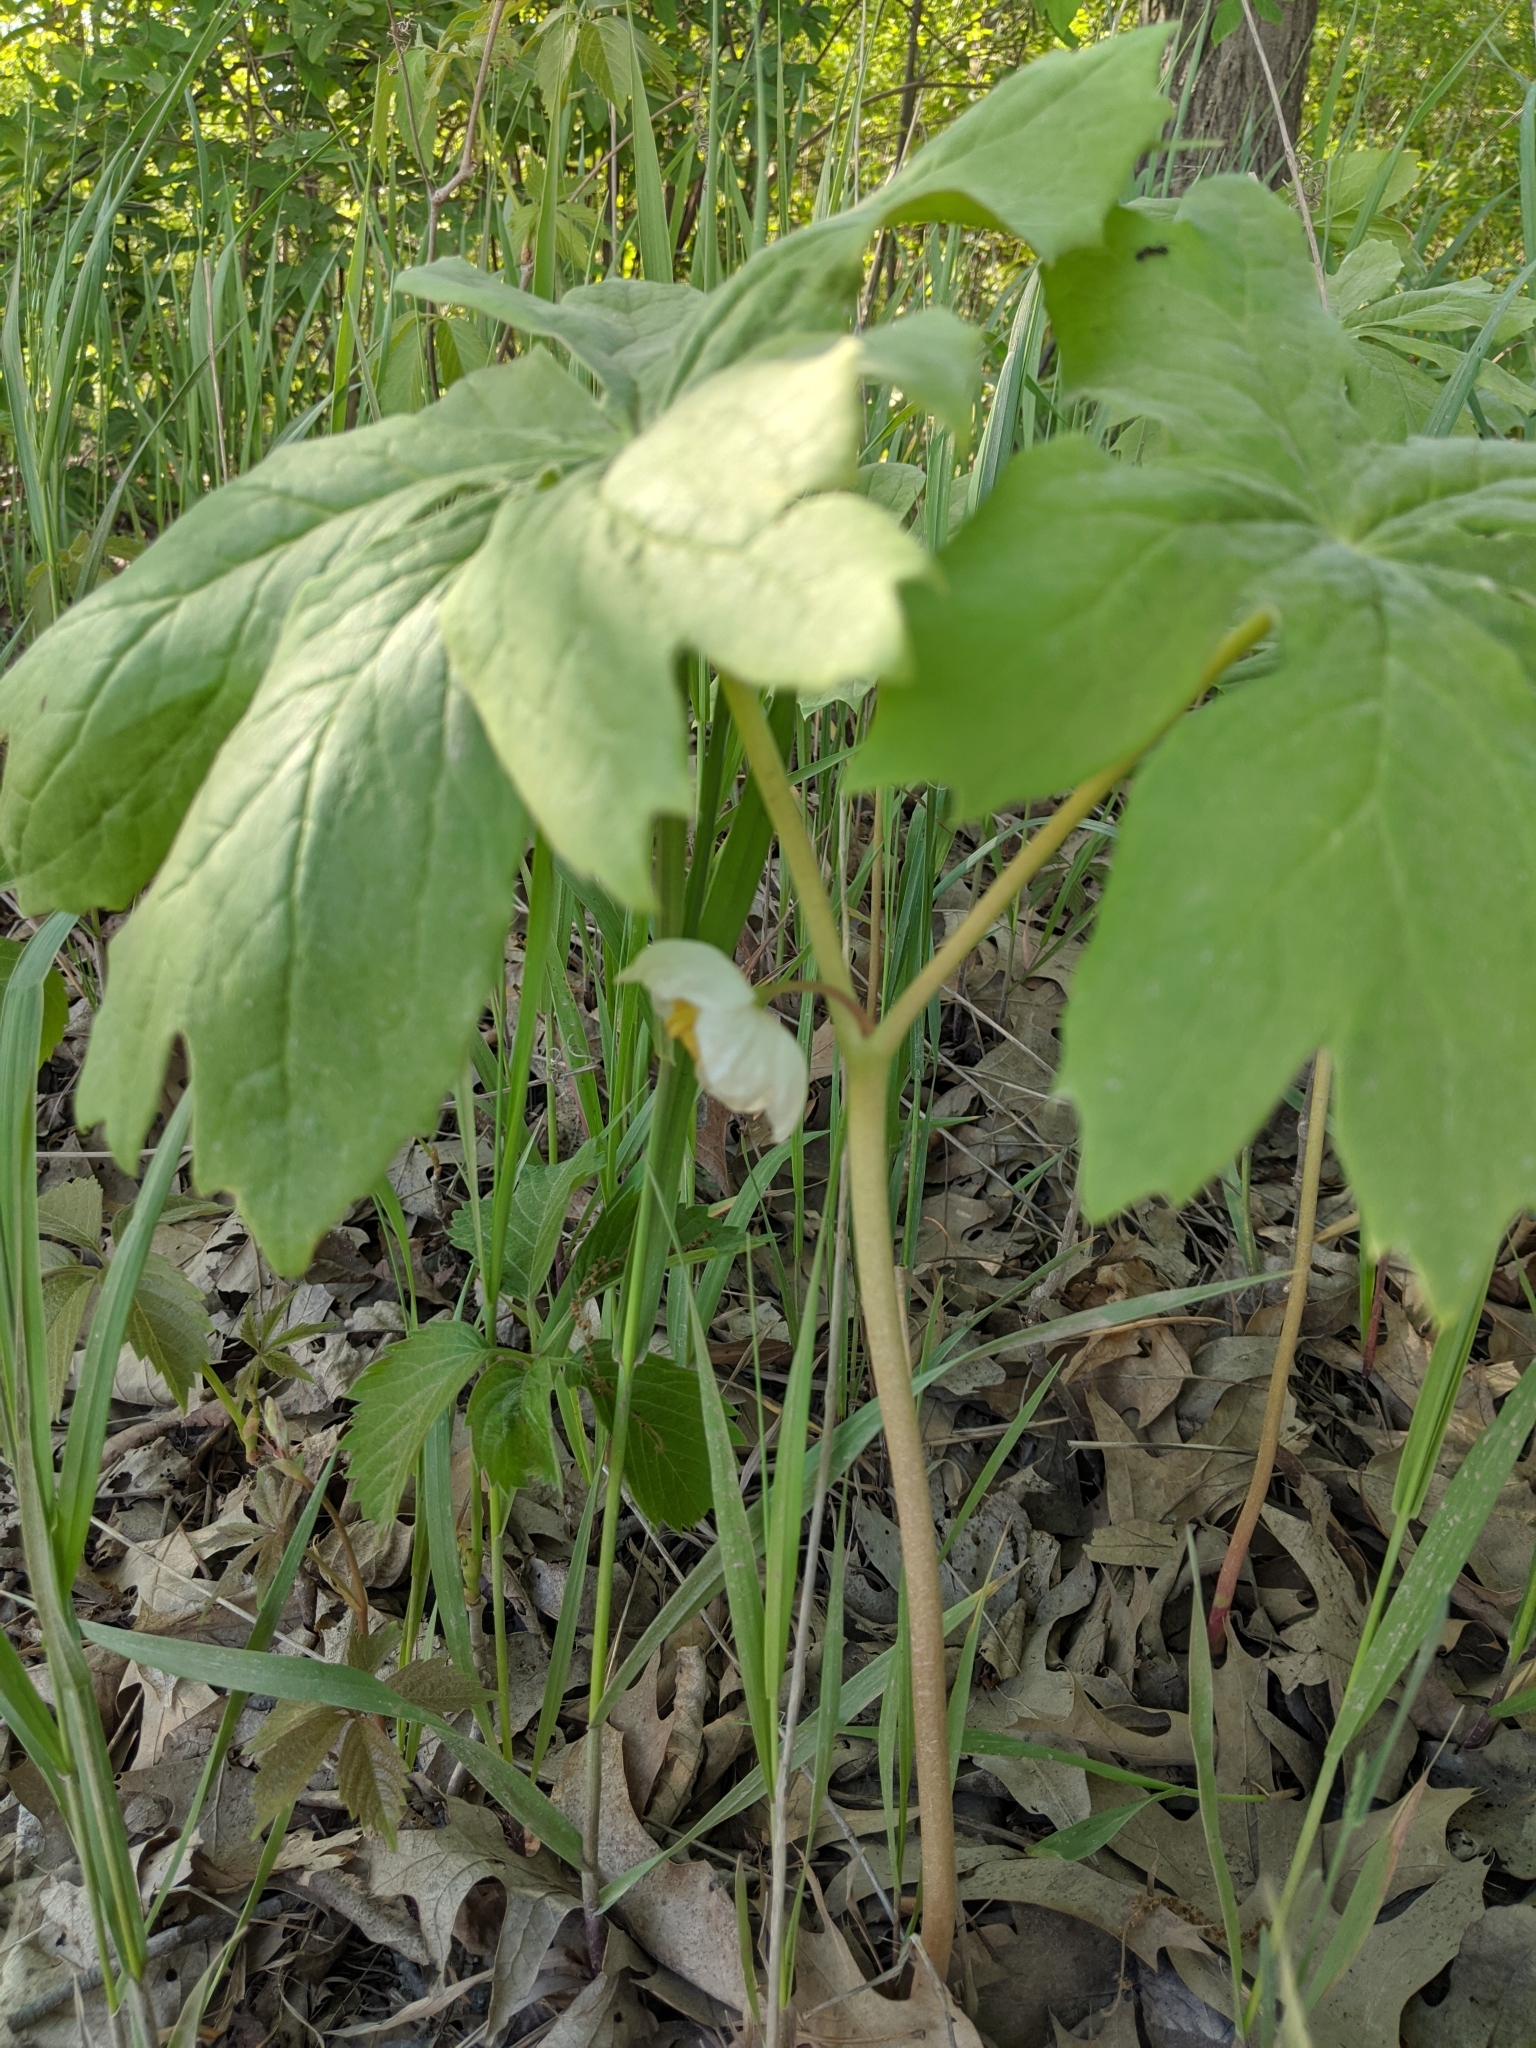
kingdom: Plantae
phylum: Tracheophyta
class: Magnoliopsida
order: Ranunculales
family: Berberidaceae
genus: Podophyllum
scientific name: Podophyllum peltatum
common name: Wild mandrake
